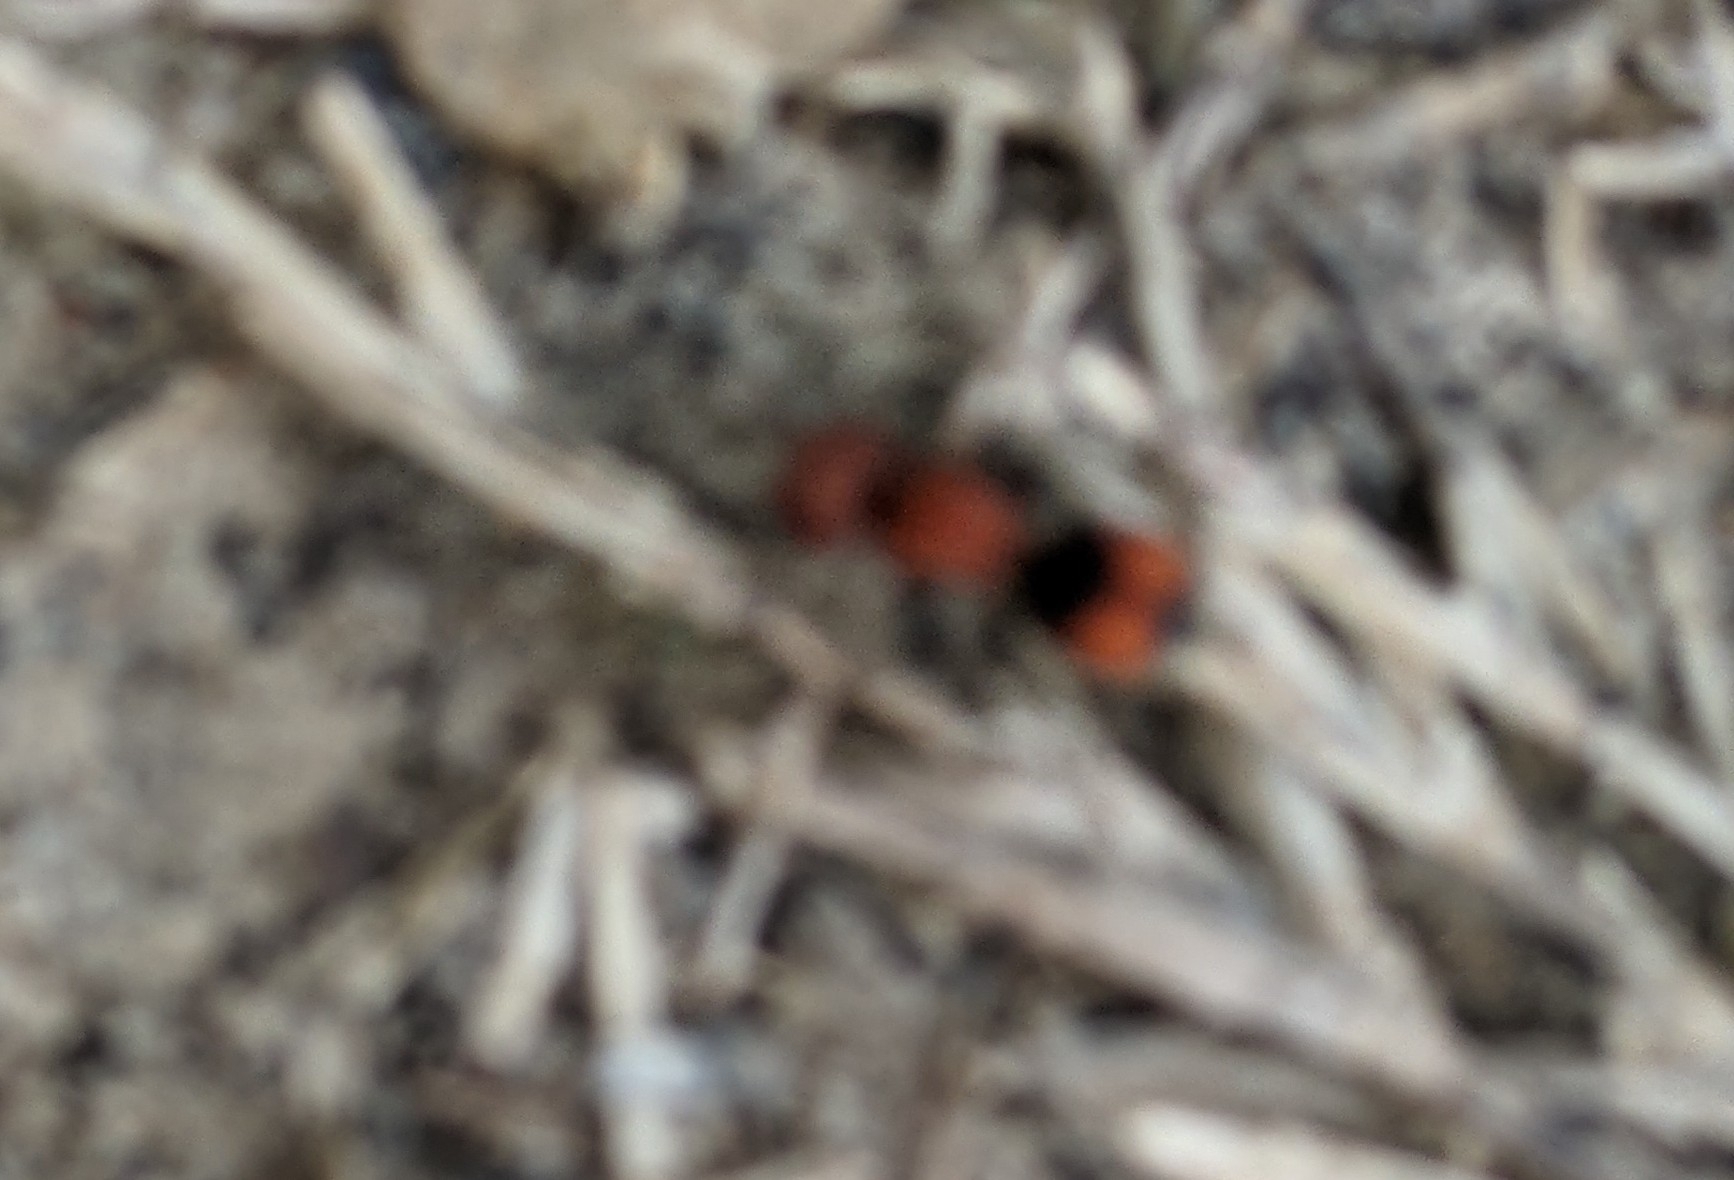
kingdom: Animalia
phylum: Arthropoda
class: Insecta
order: Hymenoptera
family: Mutillidae
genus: Pseudomethoca
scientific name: Pseudomethoca
